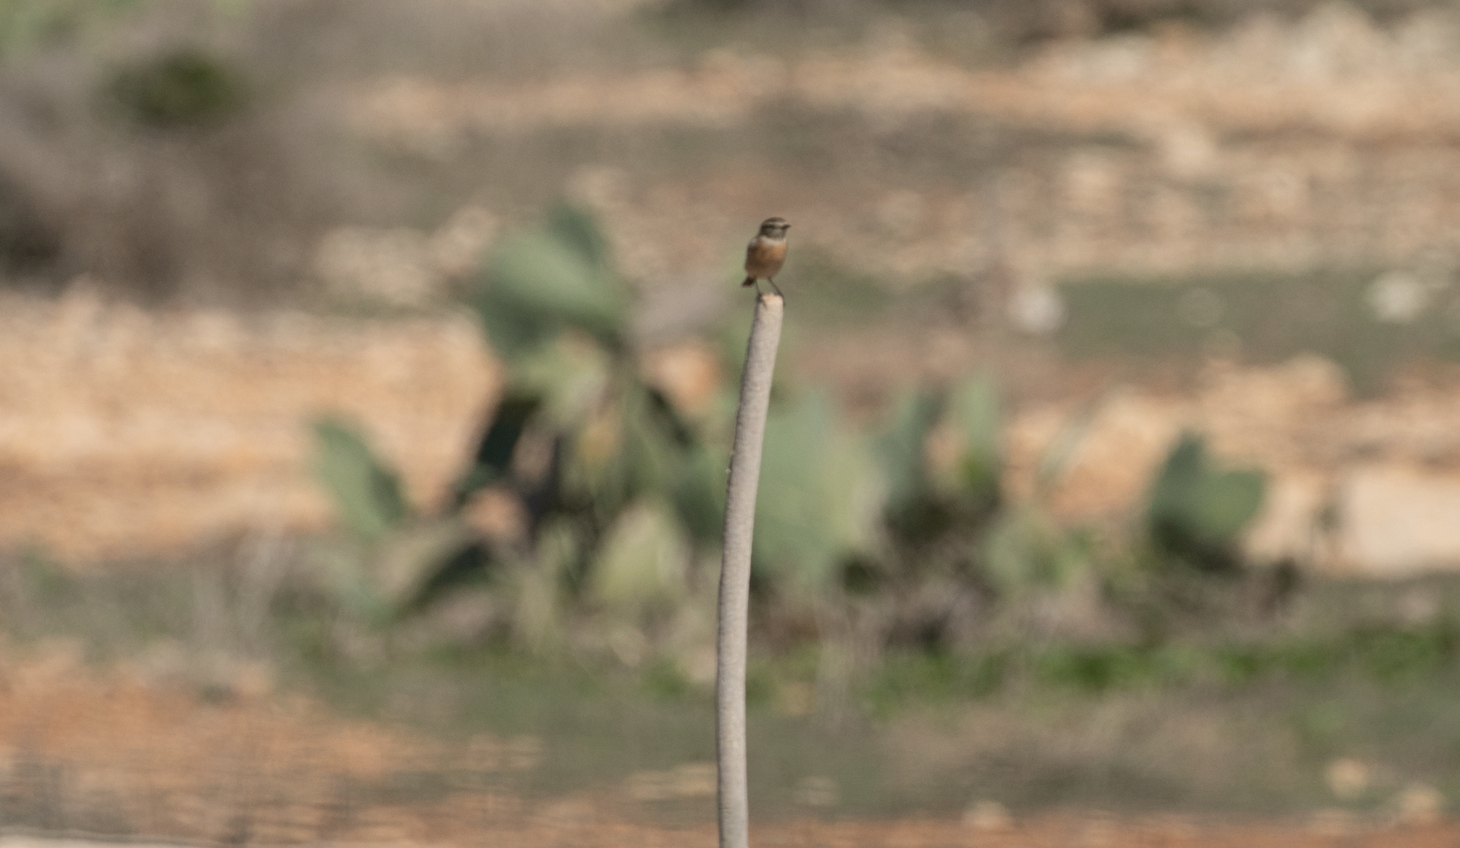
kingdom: Animalia
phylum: Chordata
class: Aves
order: Passeriformes
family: Muscicapidae
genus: Saxicola
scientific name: Saxicola rubicola
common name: European stonechat
